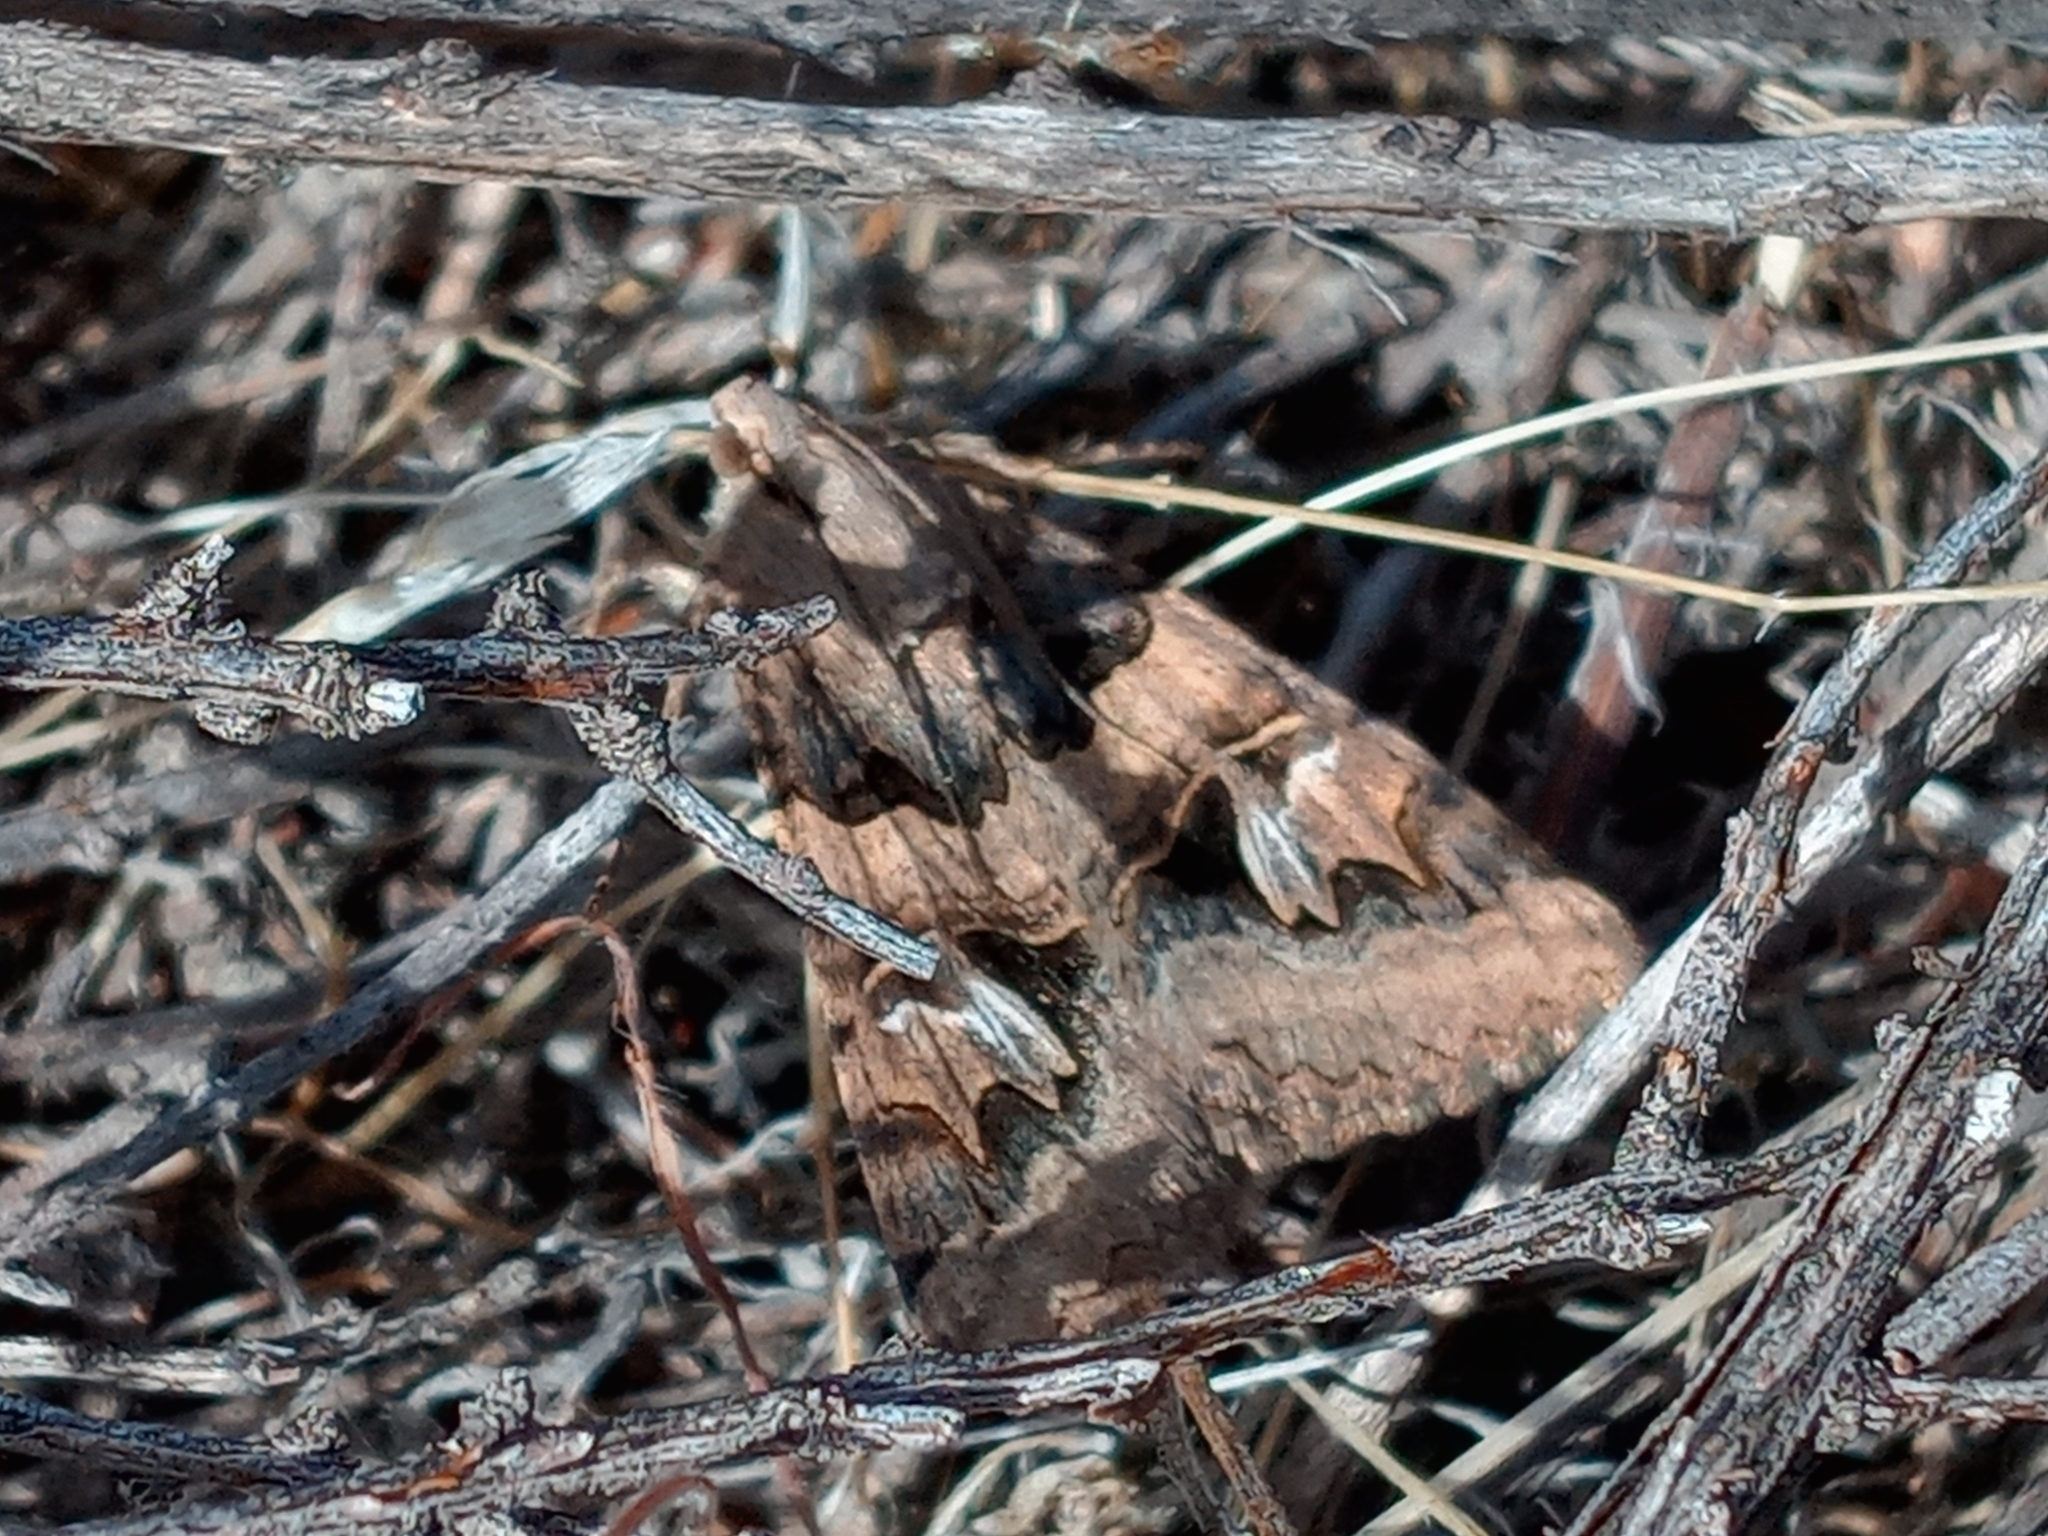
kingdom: Animalia
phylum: Arthropoda
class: Insecta
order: Lepidoptera
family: Erebidae
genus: Drasteria
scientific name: Drasteria divergens
